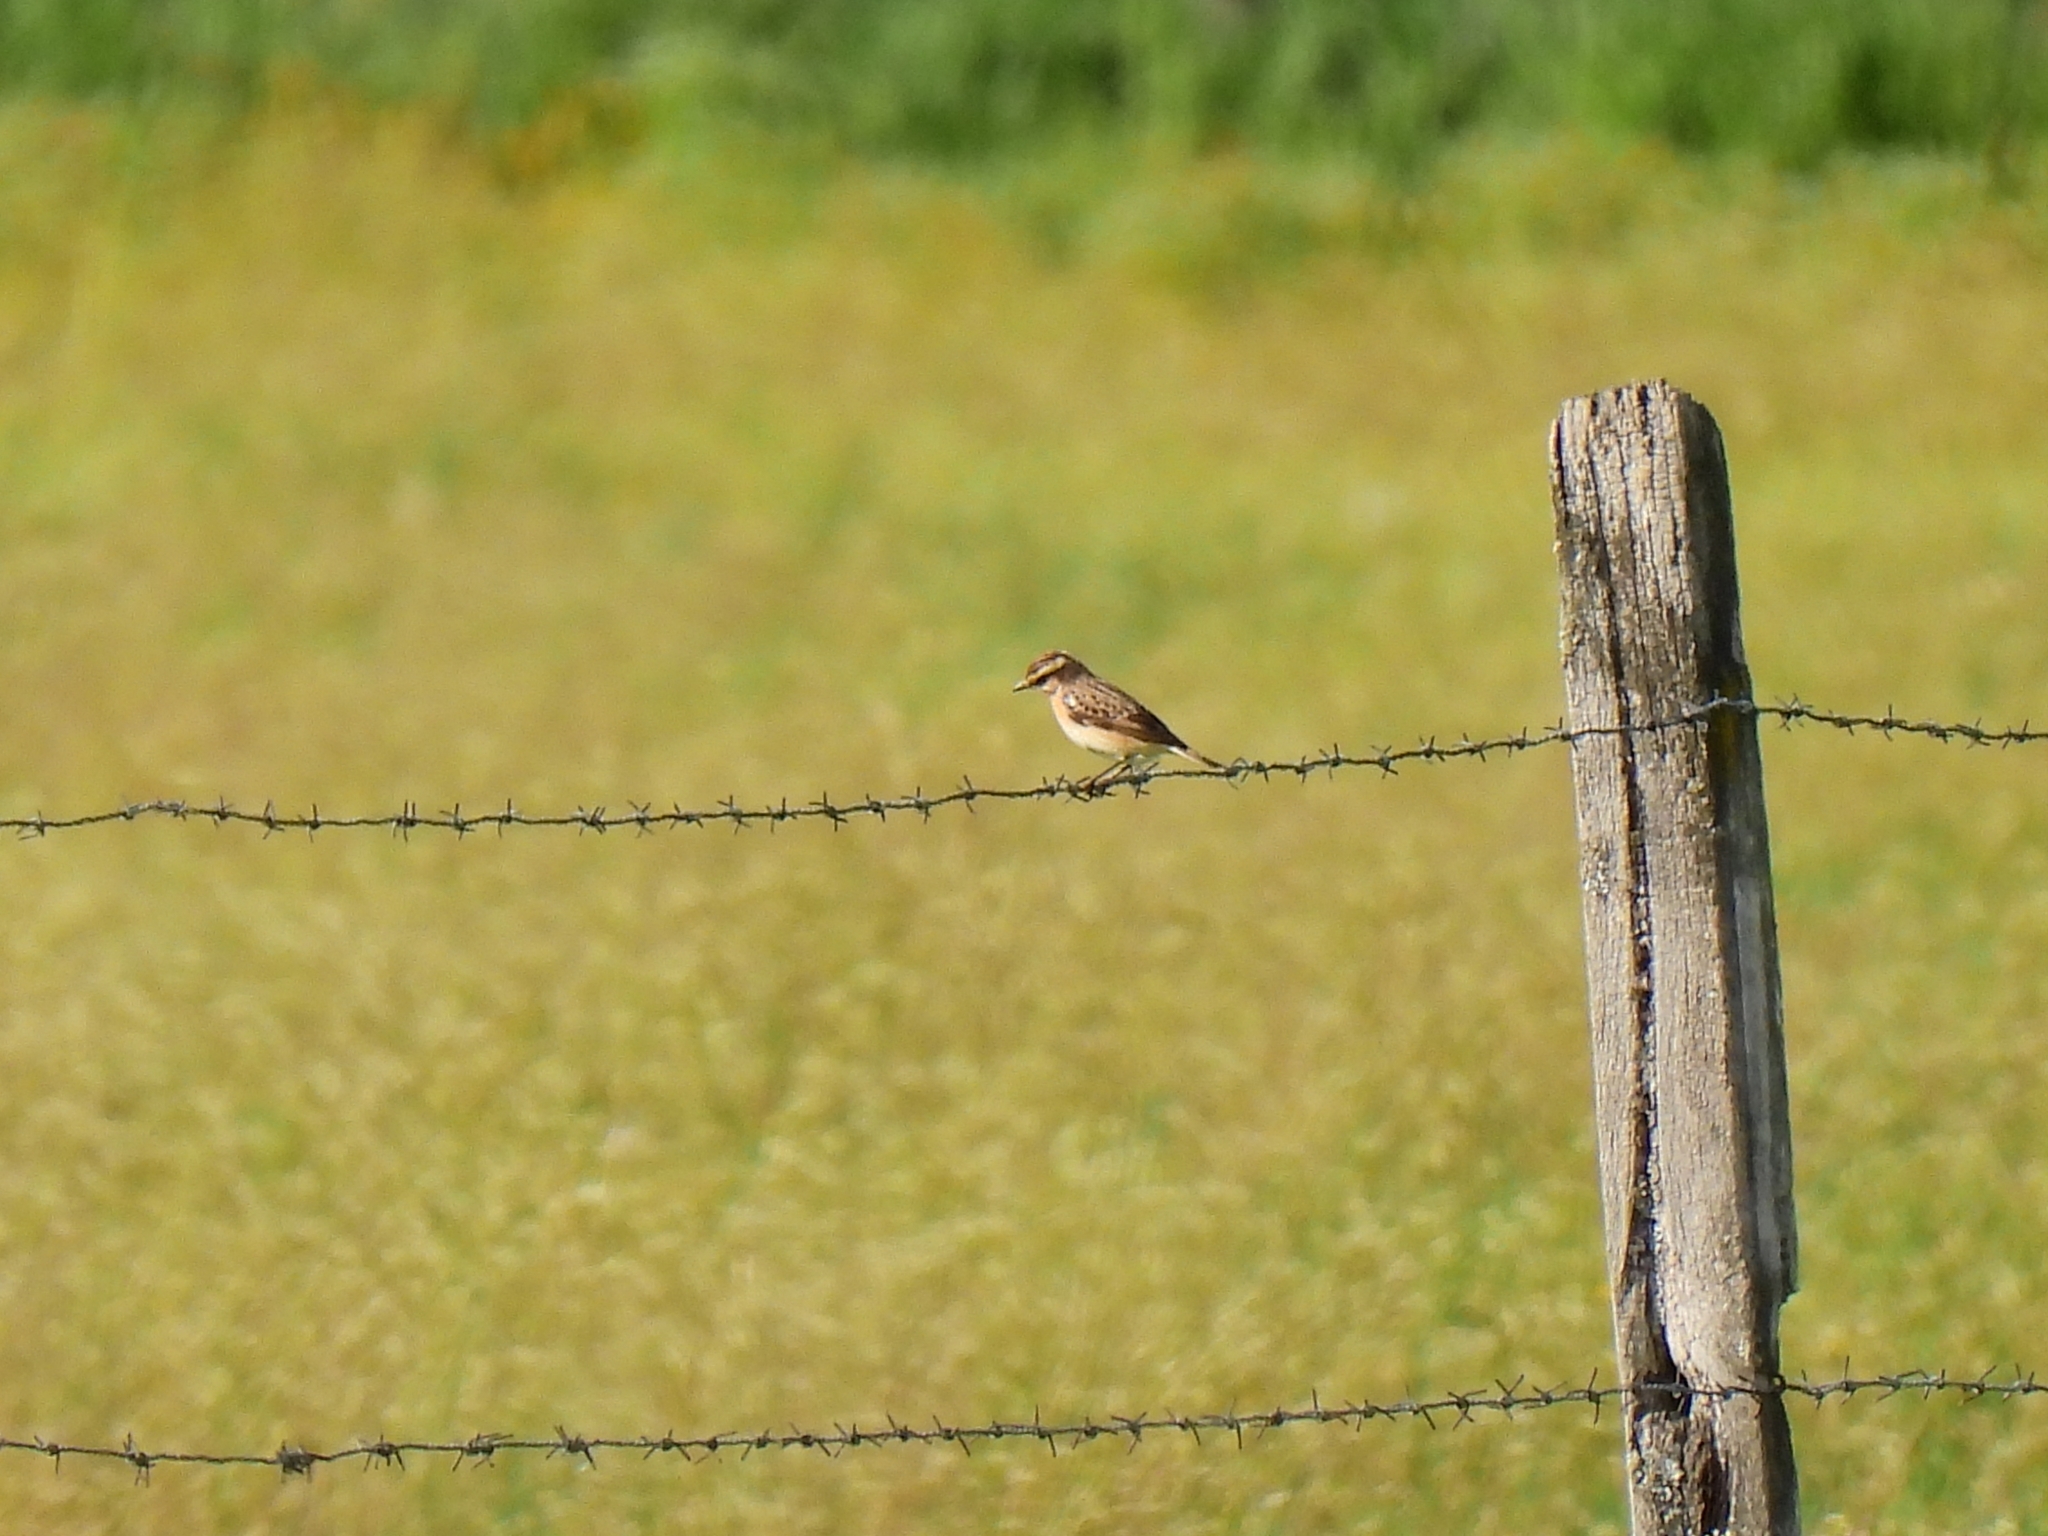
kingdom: Animalia
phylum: Chordata
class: Aves
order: Passeriformes
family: Muscicapidae
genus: Saxicola
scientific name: Saxicola rubetra
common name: Whinchat
